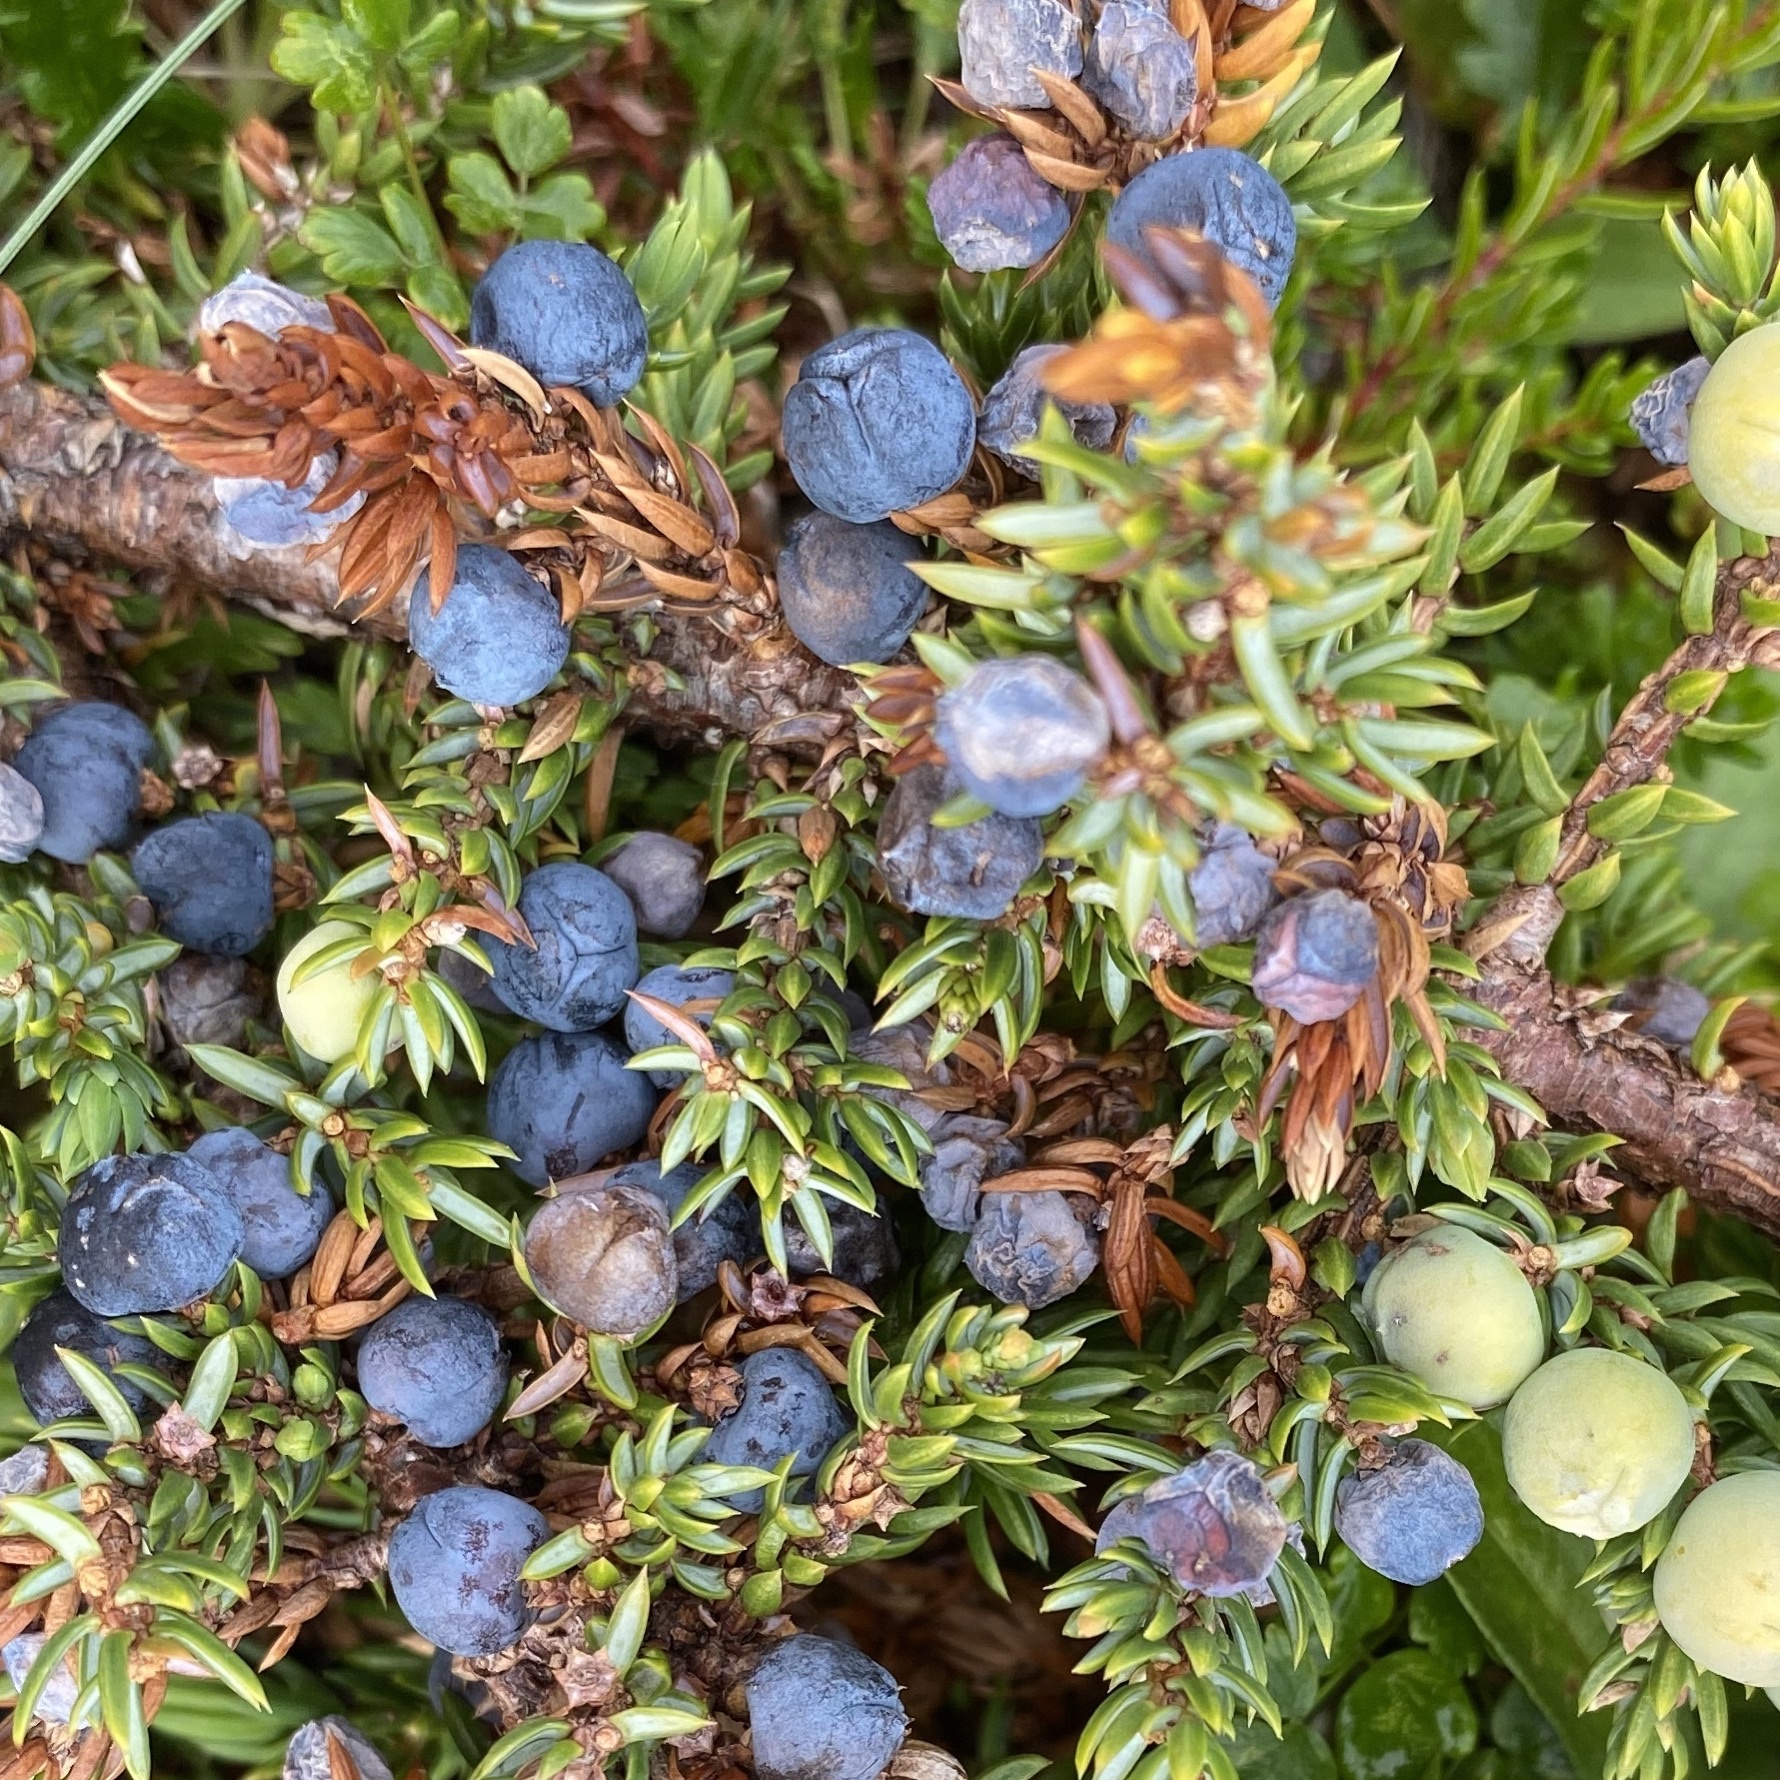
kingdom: Plantae
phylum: Tracheophyta
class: Pinopsida
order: Pinales
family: Cupressaceae
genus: Juniperus
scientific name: Juniperus communis
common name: Common juniper
